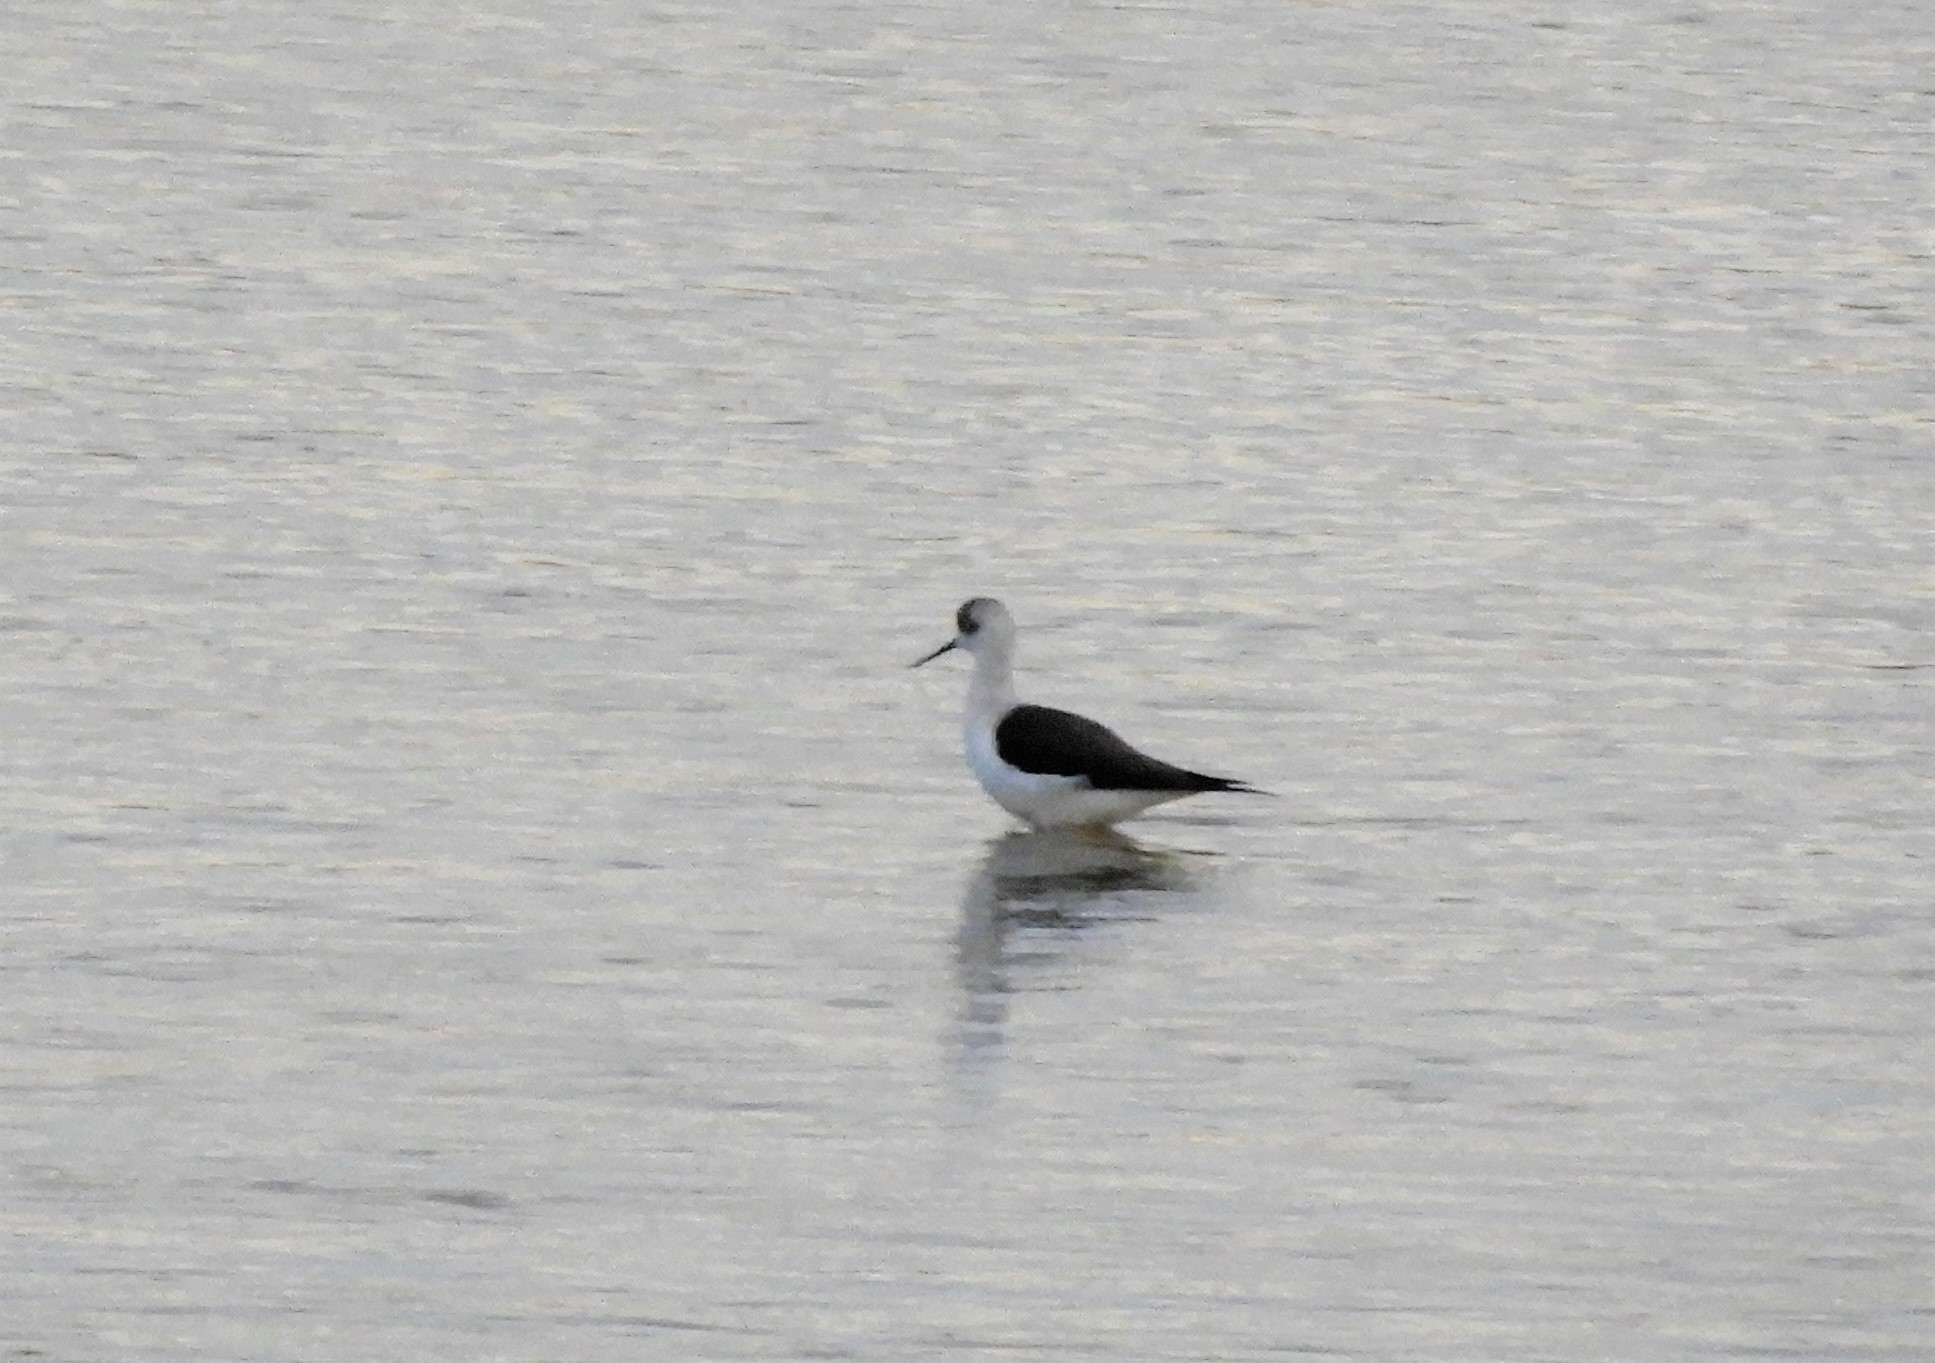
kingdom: Animalia
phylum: Chordata
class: Aves
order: Charadriiformes
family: Recurvirostridae
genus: Himantopus
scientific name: Himantopus himantopus
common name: Black-winged stilt
